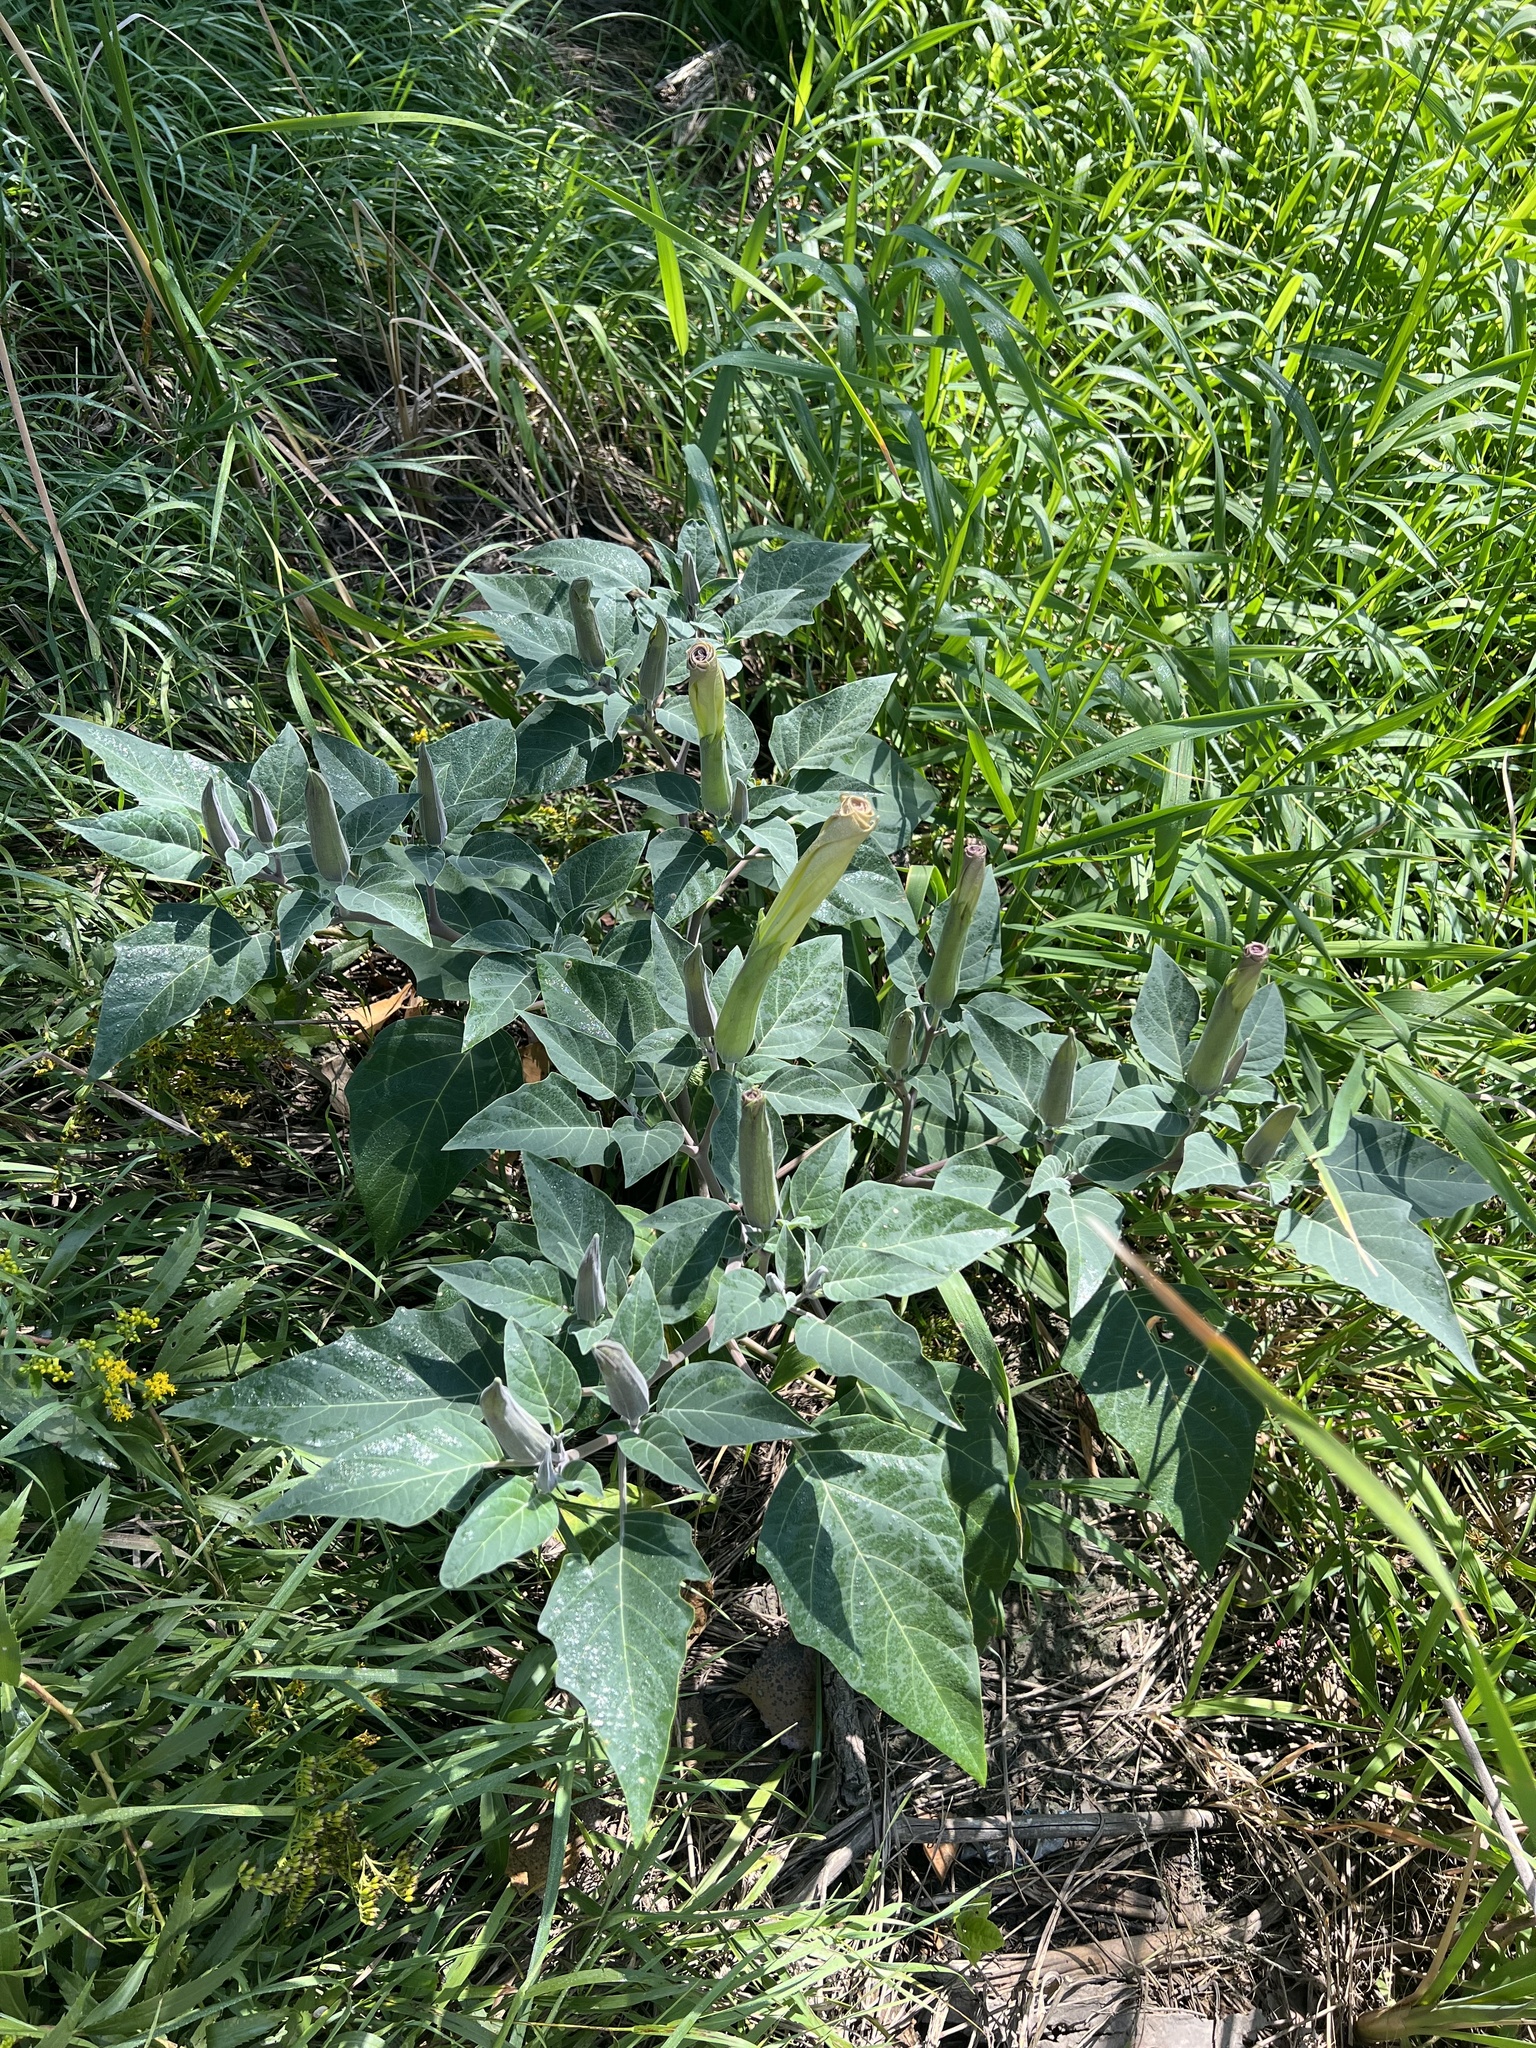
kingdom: Plantae
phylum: Tracheophyta
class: Magnoliopsida
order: Solanales
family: Solanaceae
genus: Datura
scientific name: Datura wrightii
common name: Sacred thorn-apple
